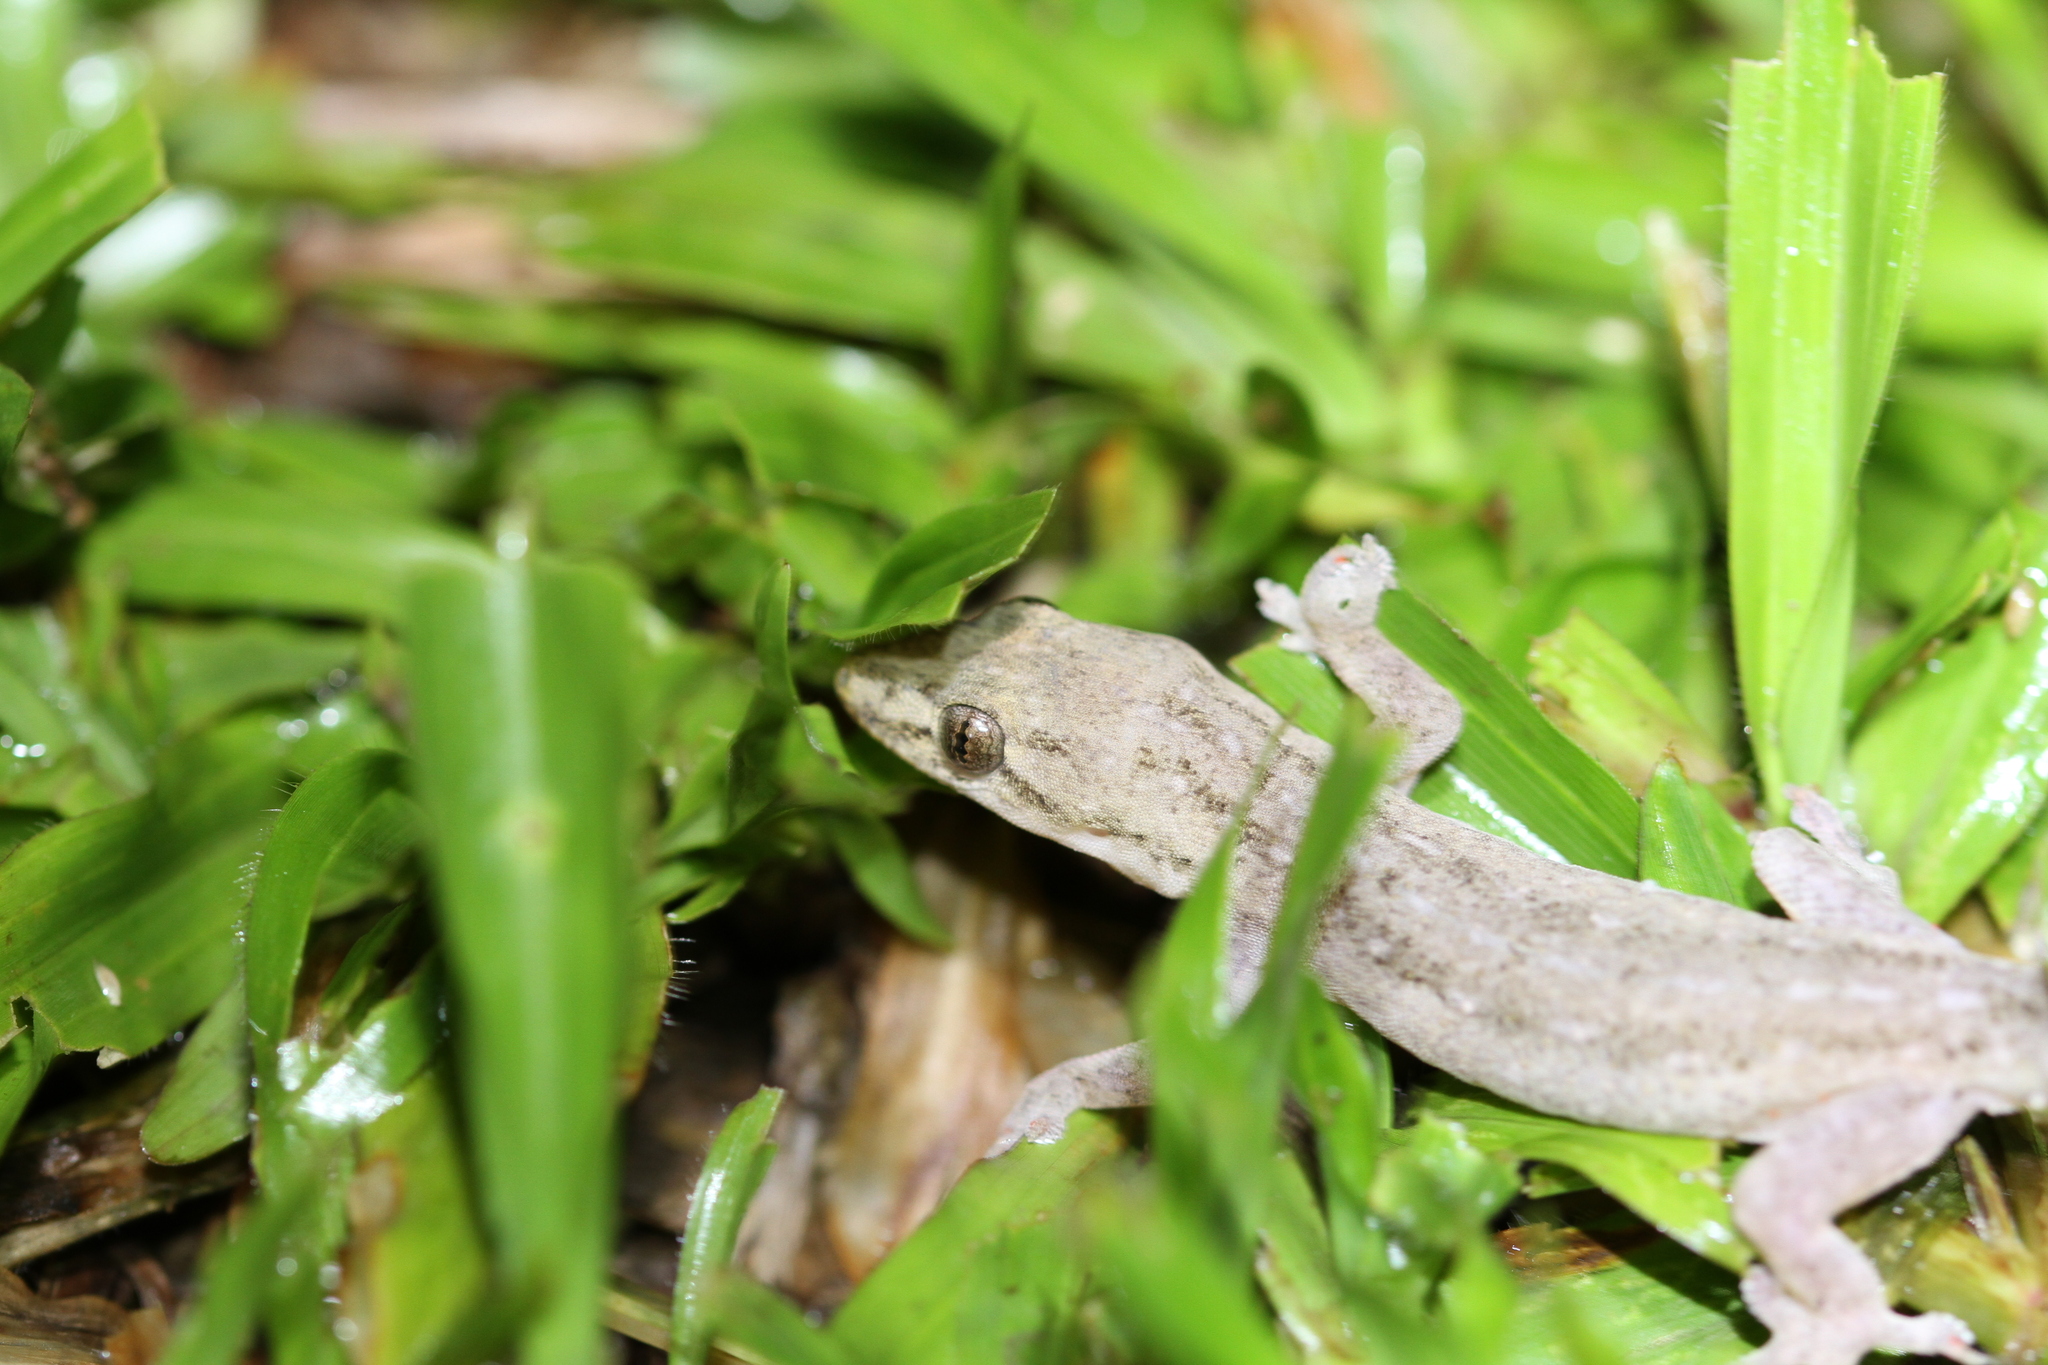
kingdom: Animalia
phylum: Chordata
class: Squamata
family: Gekkonidae
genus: Hemidactylus
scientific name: Hemidactylus frenatus
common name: Common house gecko
